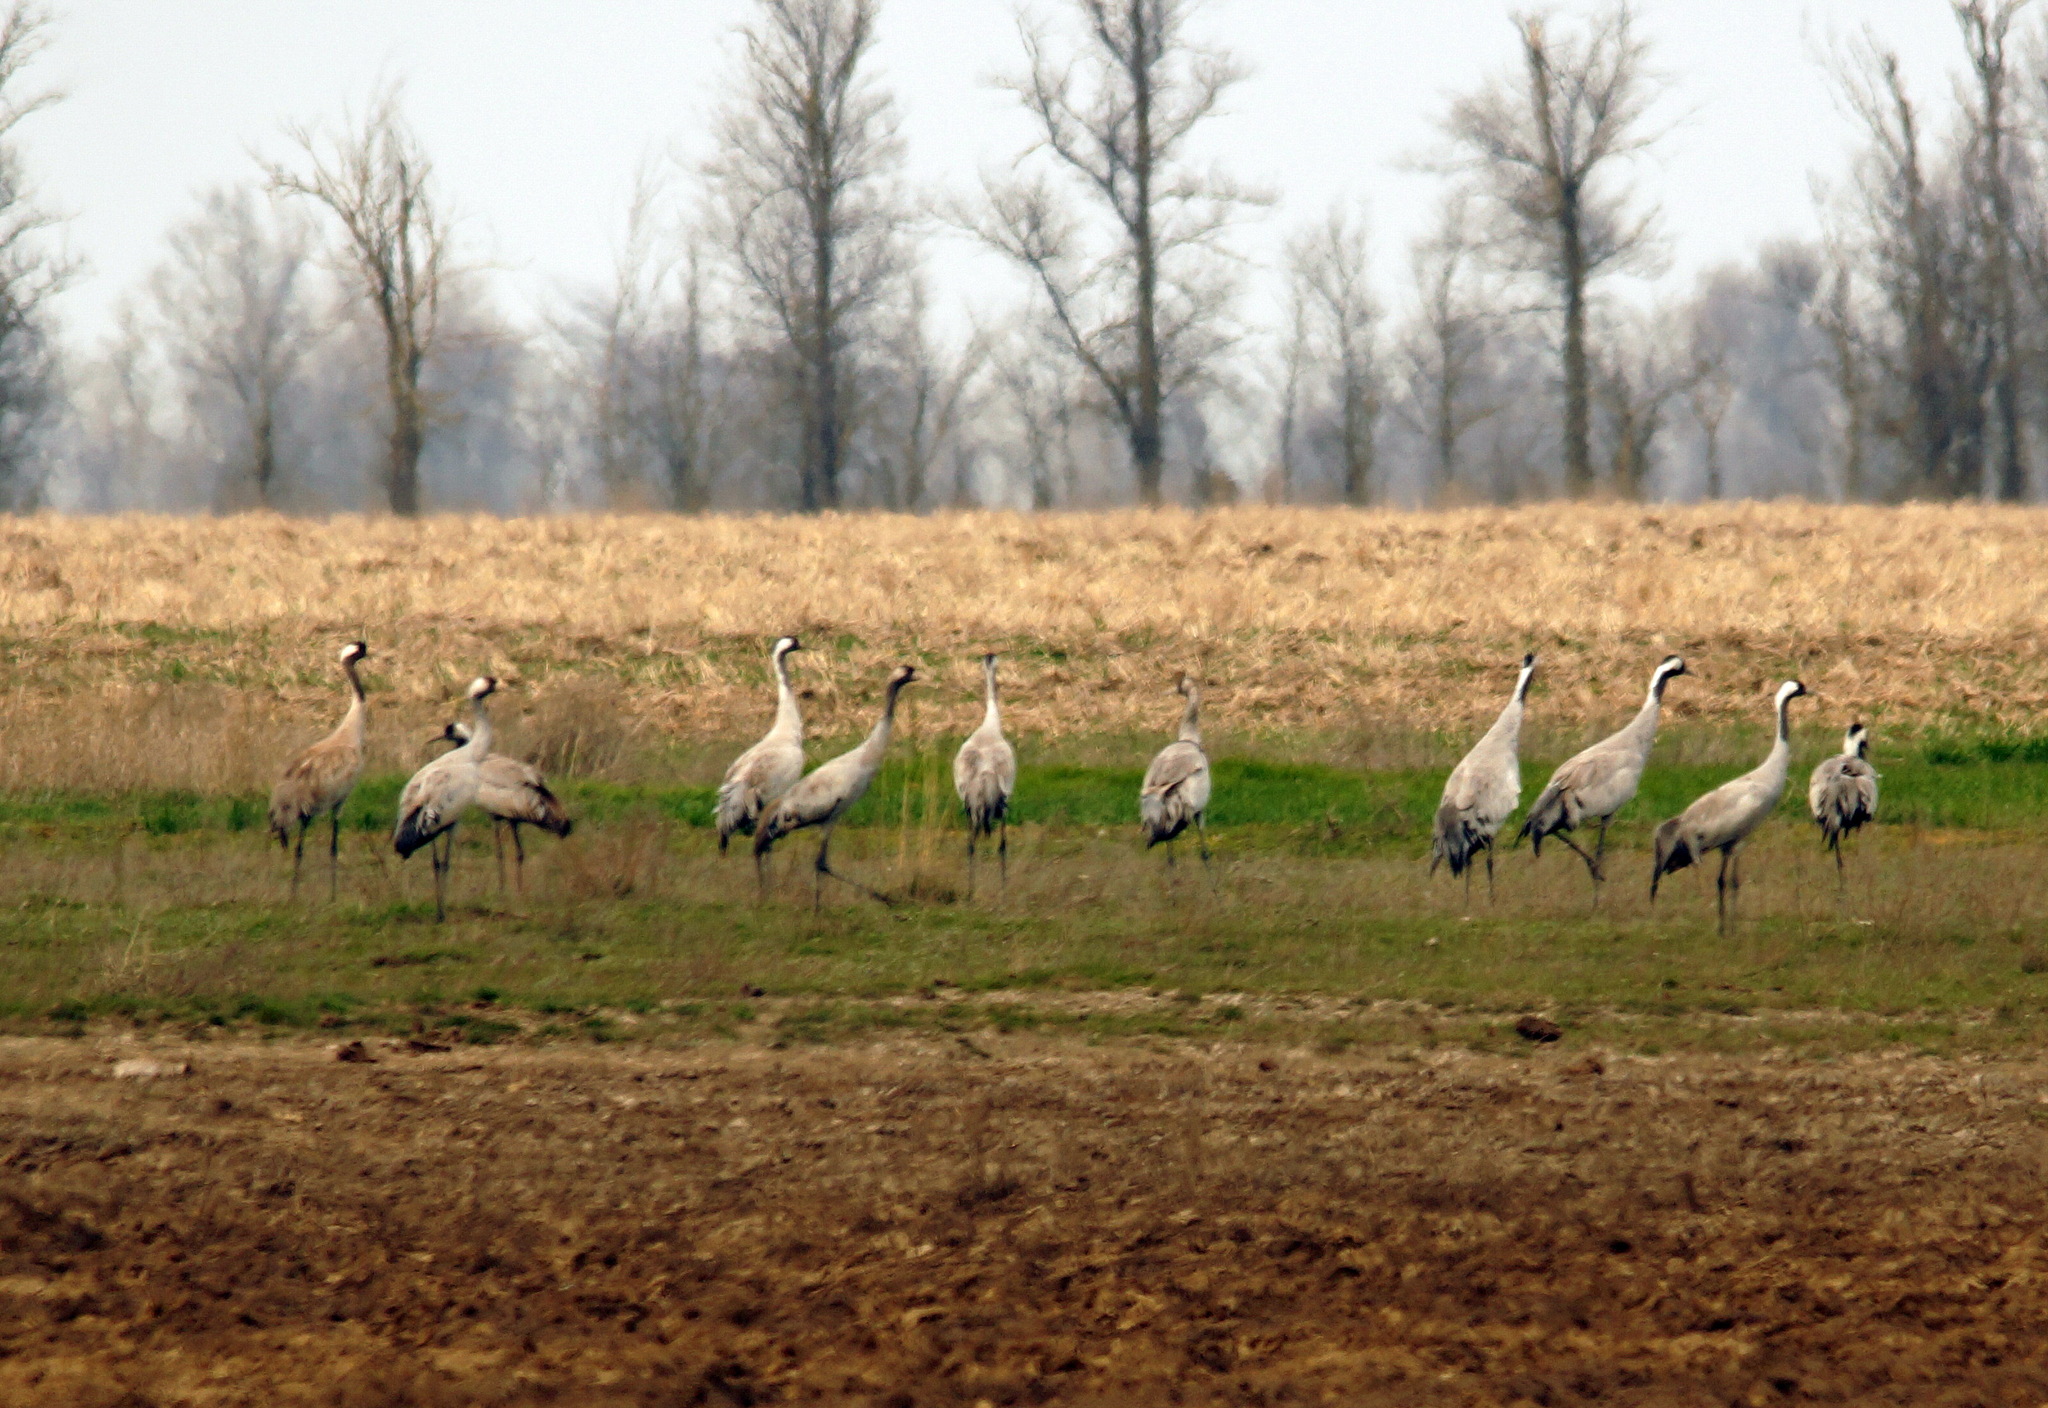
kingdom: Animalia
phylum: Chordata
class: Aves
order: Gruiformes
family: Gruidae
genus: Grus
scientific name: Grus grus
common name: Common crane
